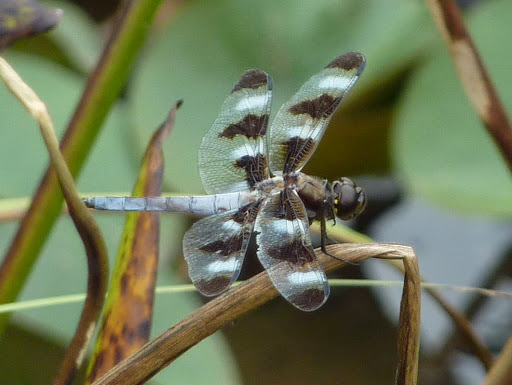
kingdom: Animalia
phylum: Arthropoda
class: Insecta
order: Odonata
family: Libellulidae
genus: Libellula
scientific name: Libellula pulchella
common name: Twelve-spotted skimmer
